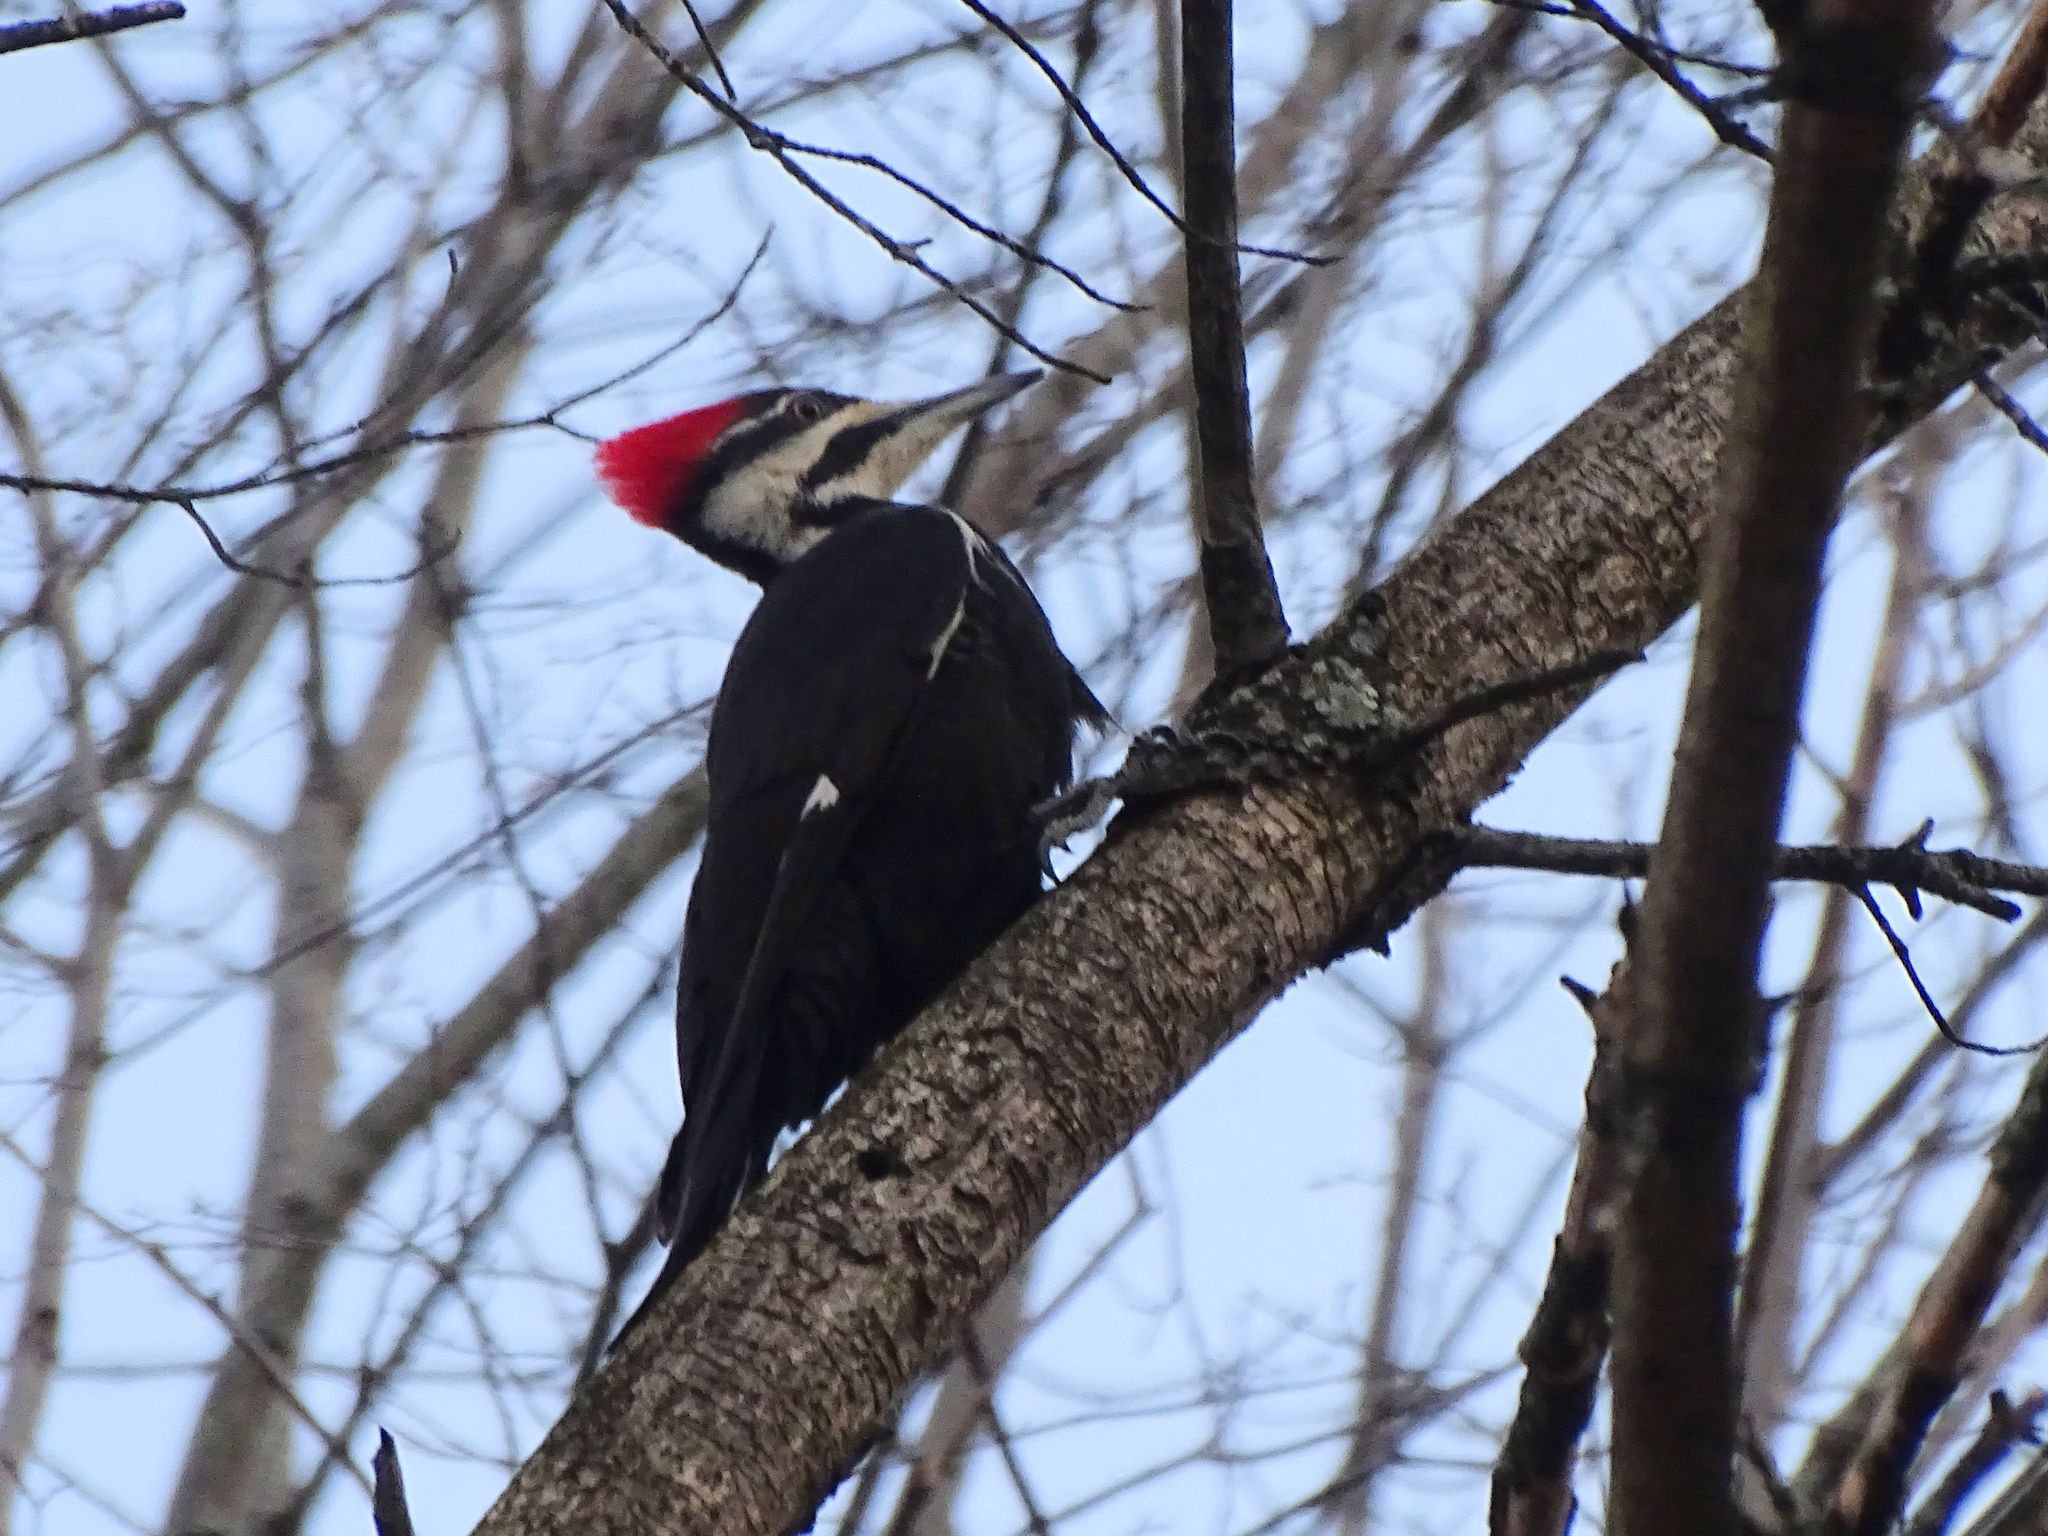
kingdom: Animalia
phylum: Chordata
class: Aves
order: Piciformes
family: Picidae
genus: Dryocopus
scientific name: Dryocopus pileatus
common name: Pileated woodpecker
